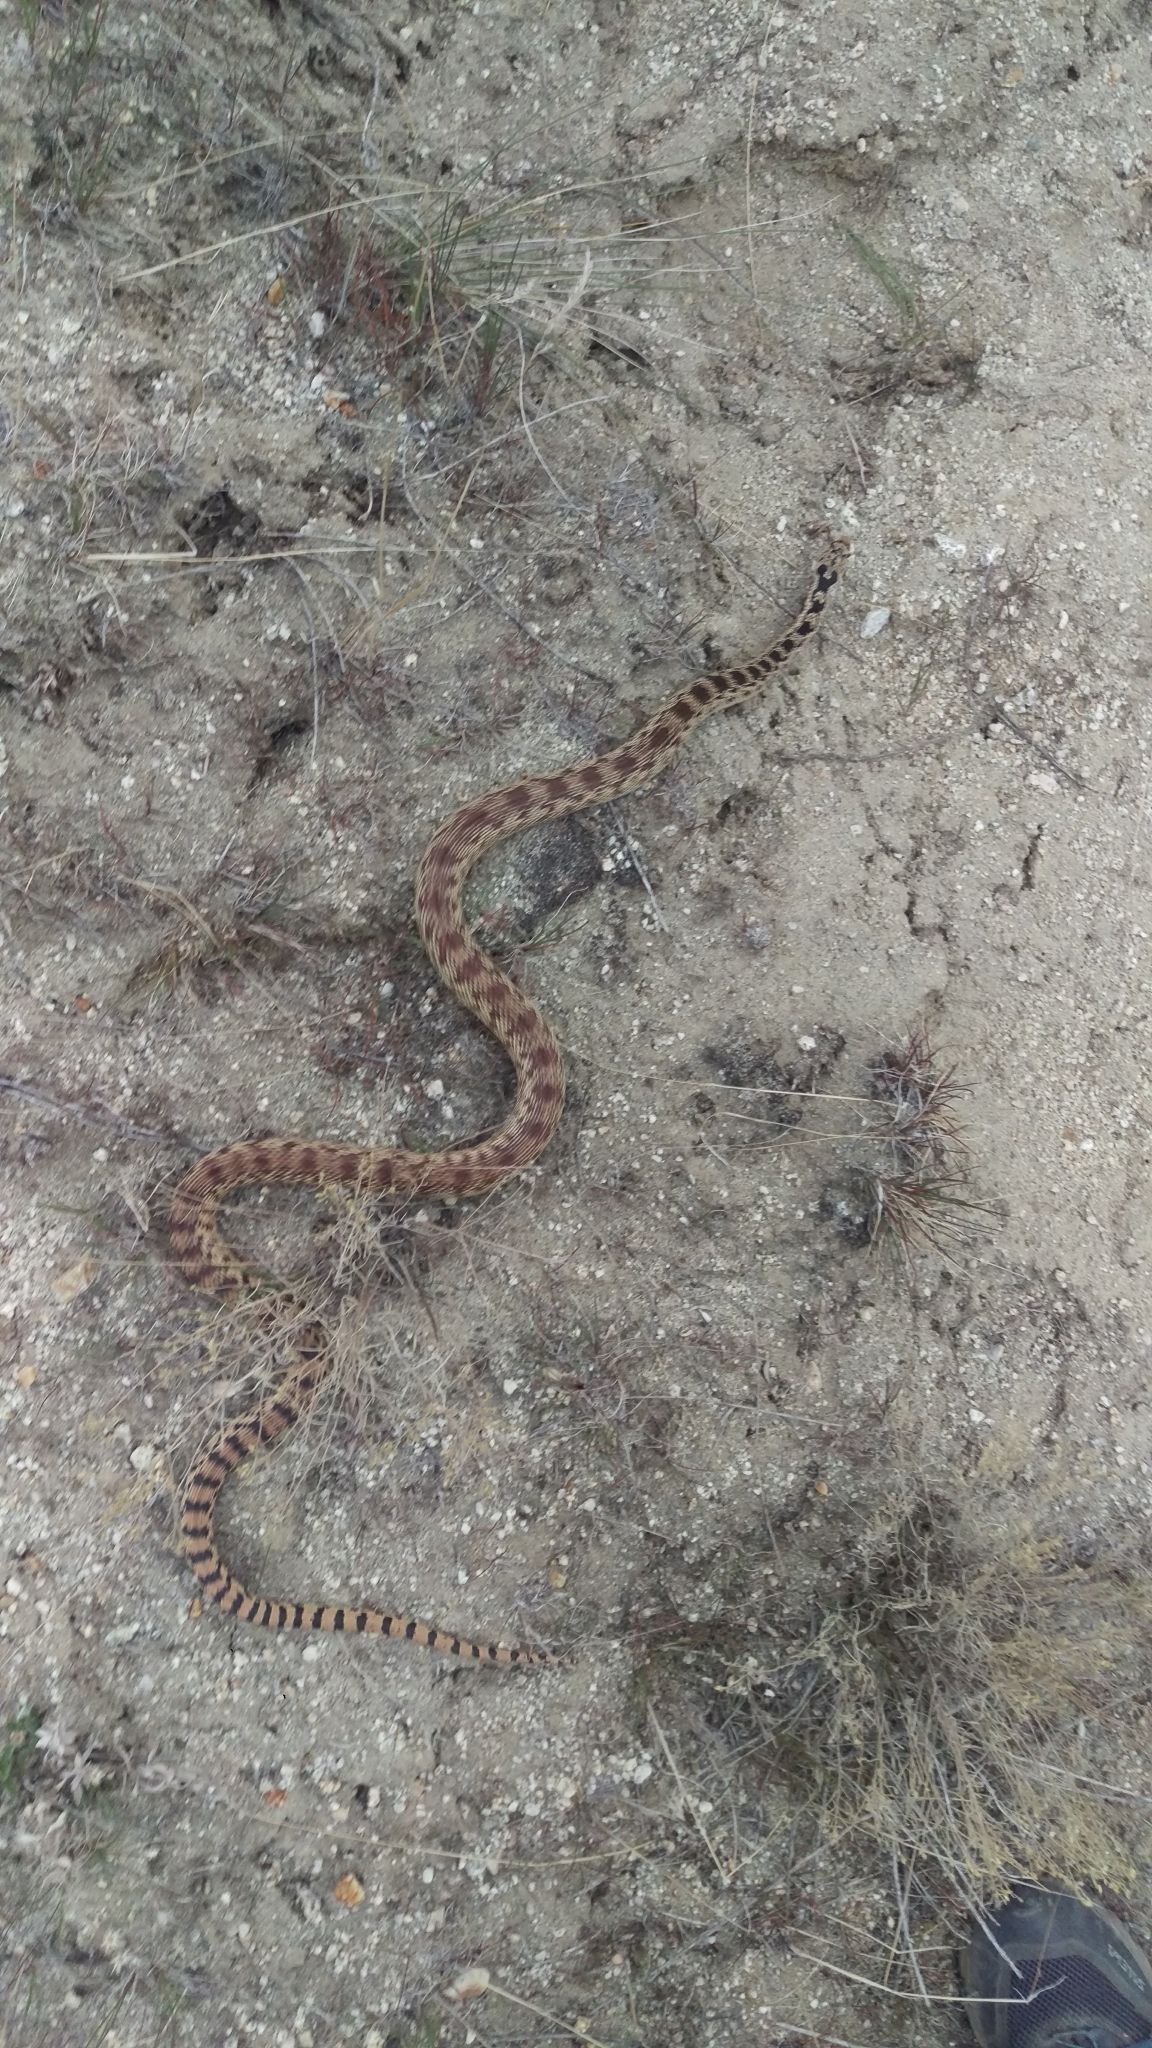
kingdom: Animalia
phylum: Chordata
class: Squamata
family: Colubridae
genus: Pituophis
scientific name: Pituophis catenifer
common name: Gopher snake
